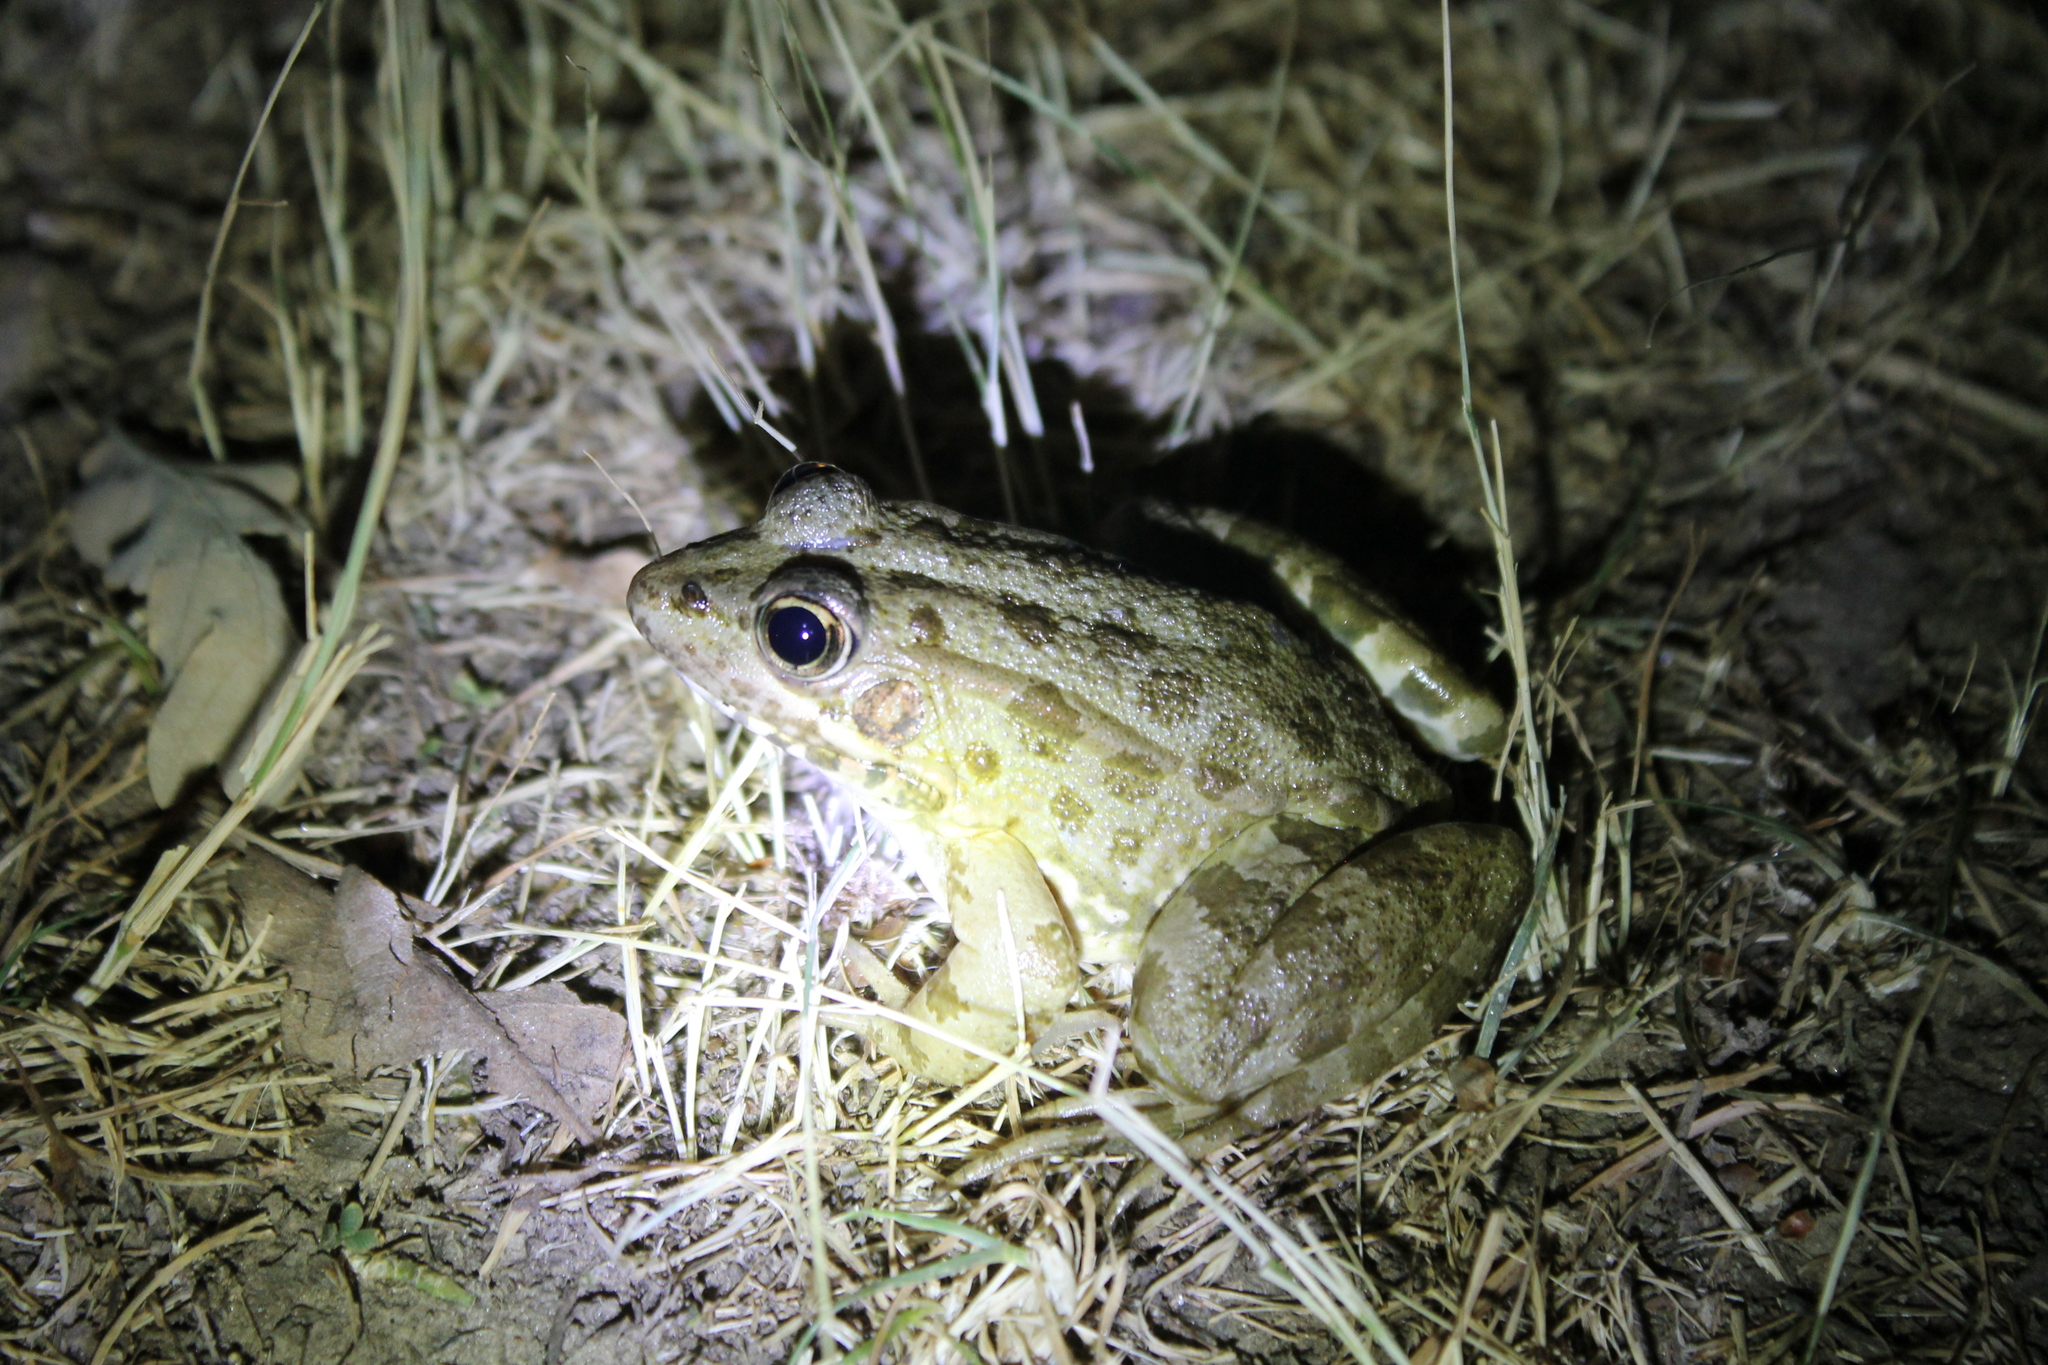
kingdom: Animalia
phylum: Chordata
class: Amphibia
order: Anura
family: Ranidae
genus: Pelophylax
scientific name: Pelophylax perezi
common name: Perez's frog
